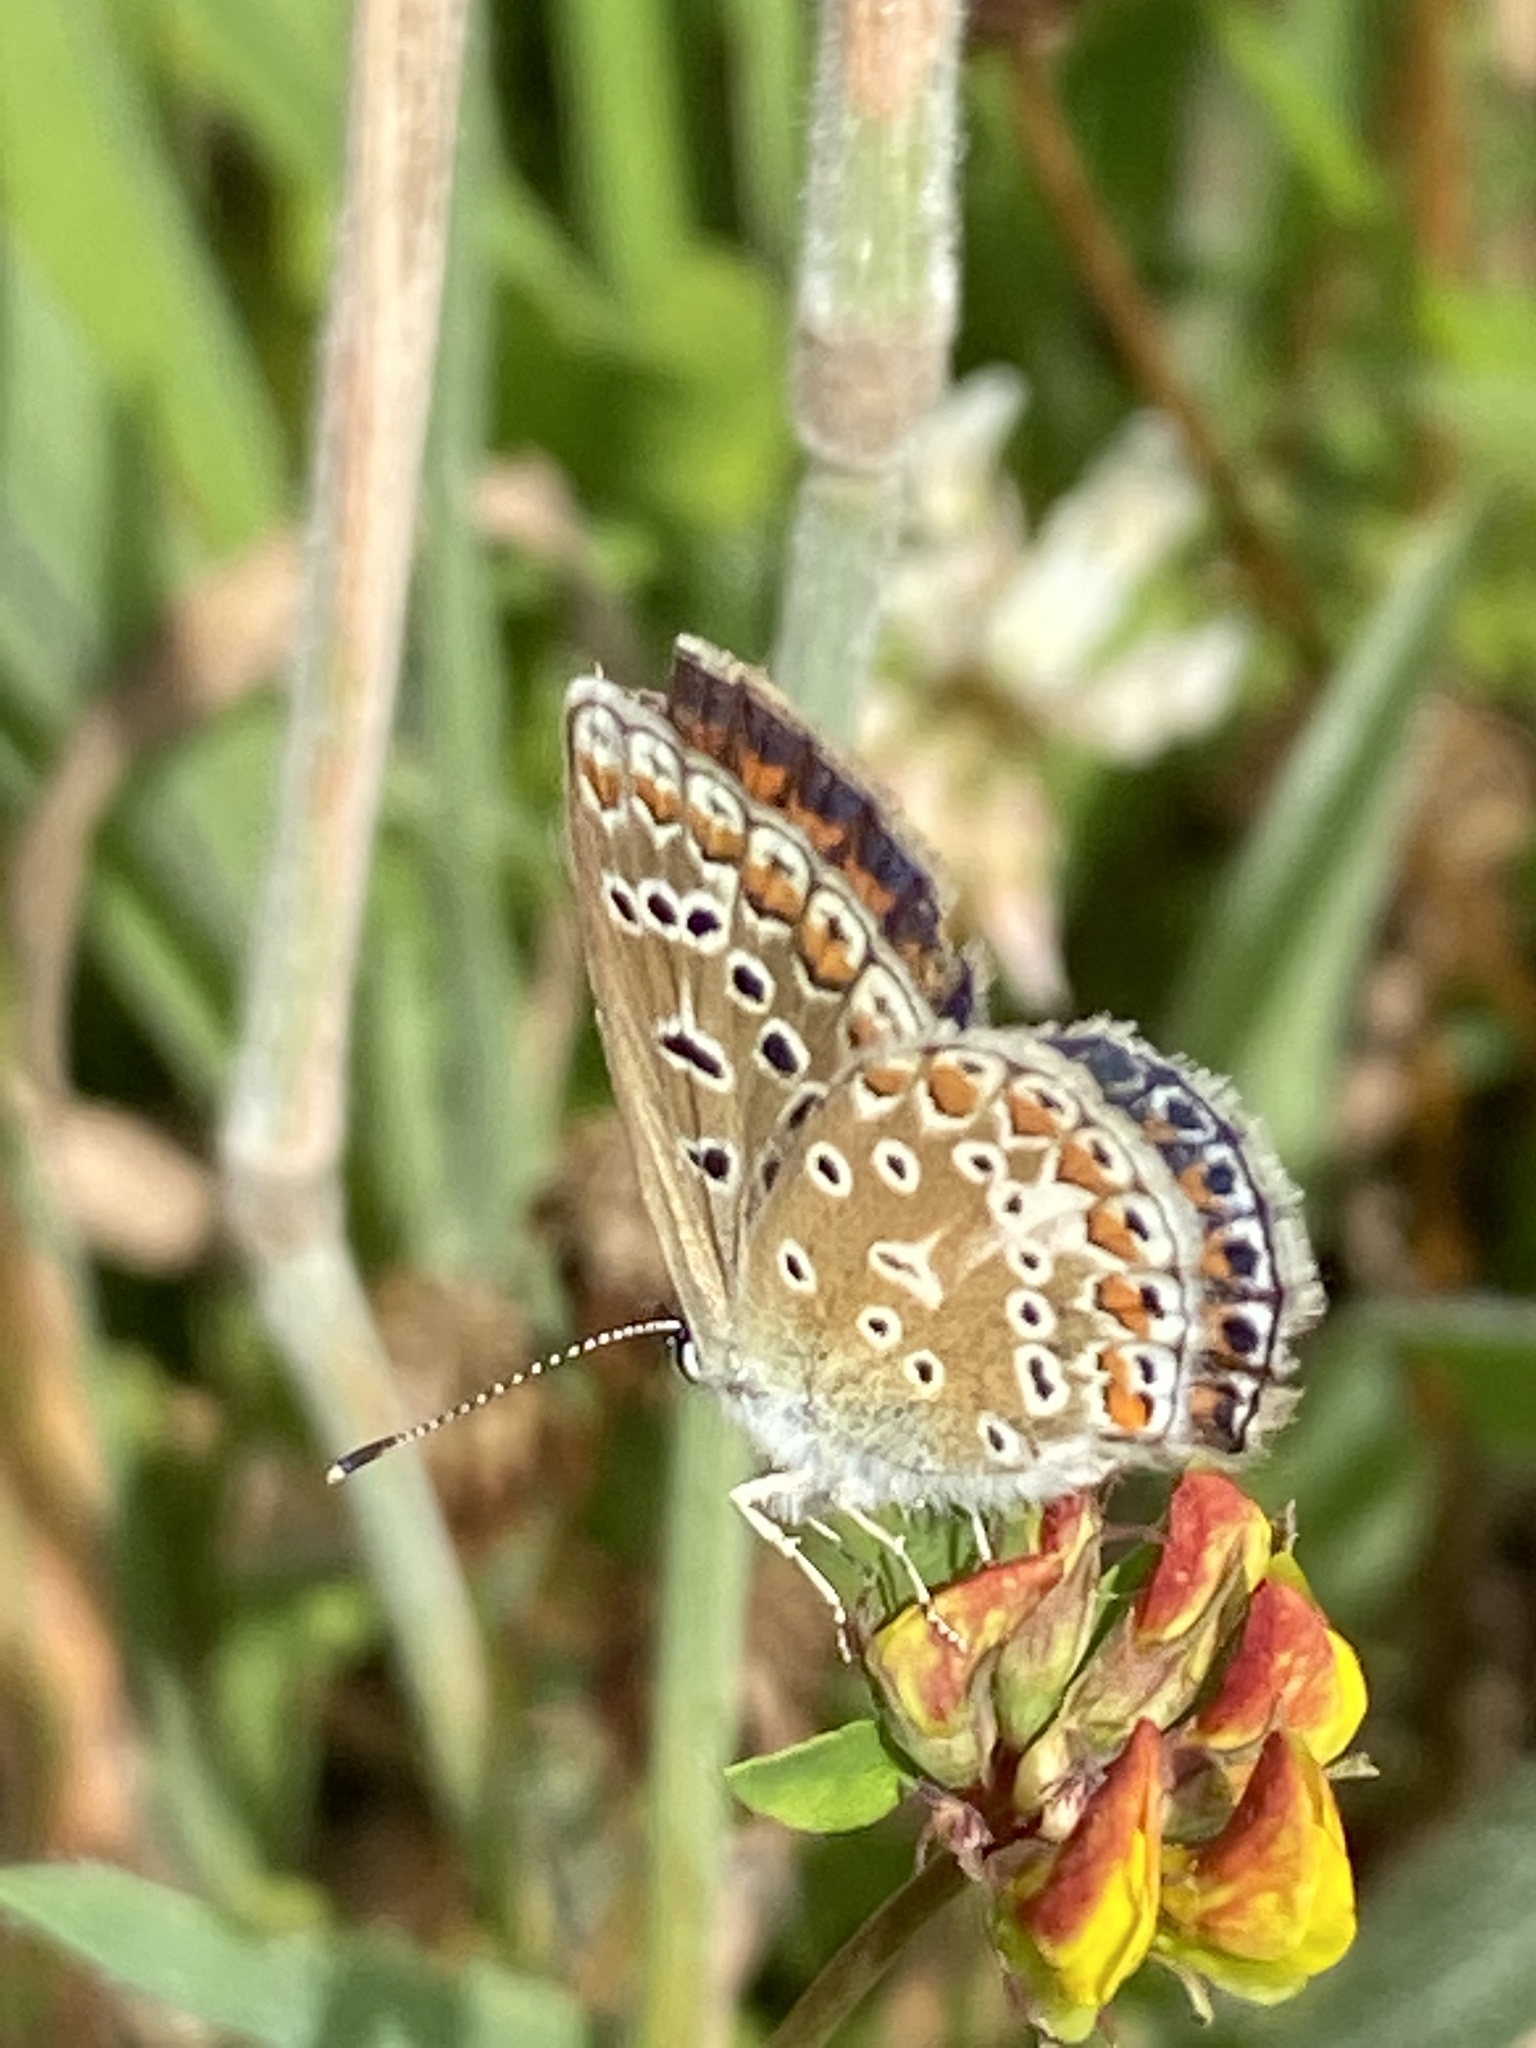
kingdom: Animalia
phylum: Arthropoda
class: Insecta
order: Lepidoptera
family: Lycaenidae
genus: Polyommatus
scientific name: Polyommatus icarus
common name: Common blue
